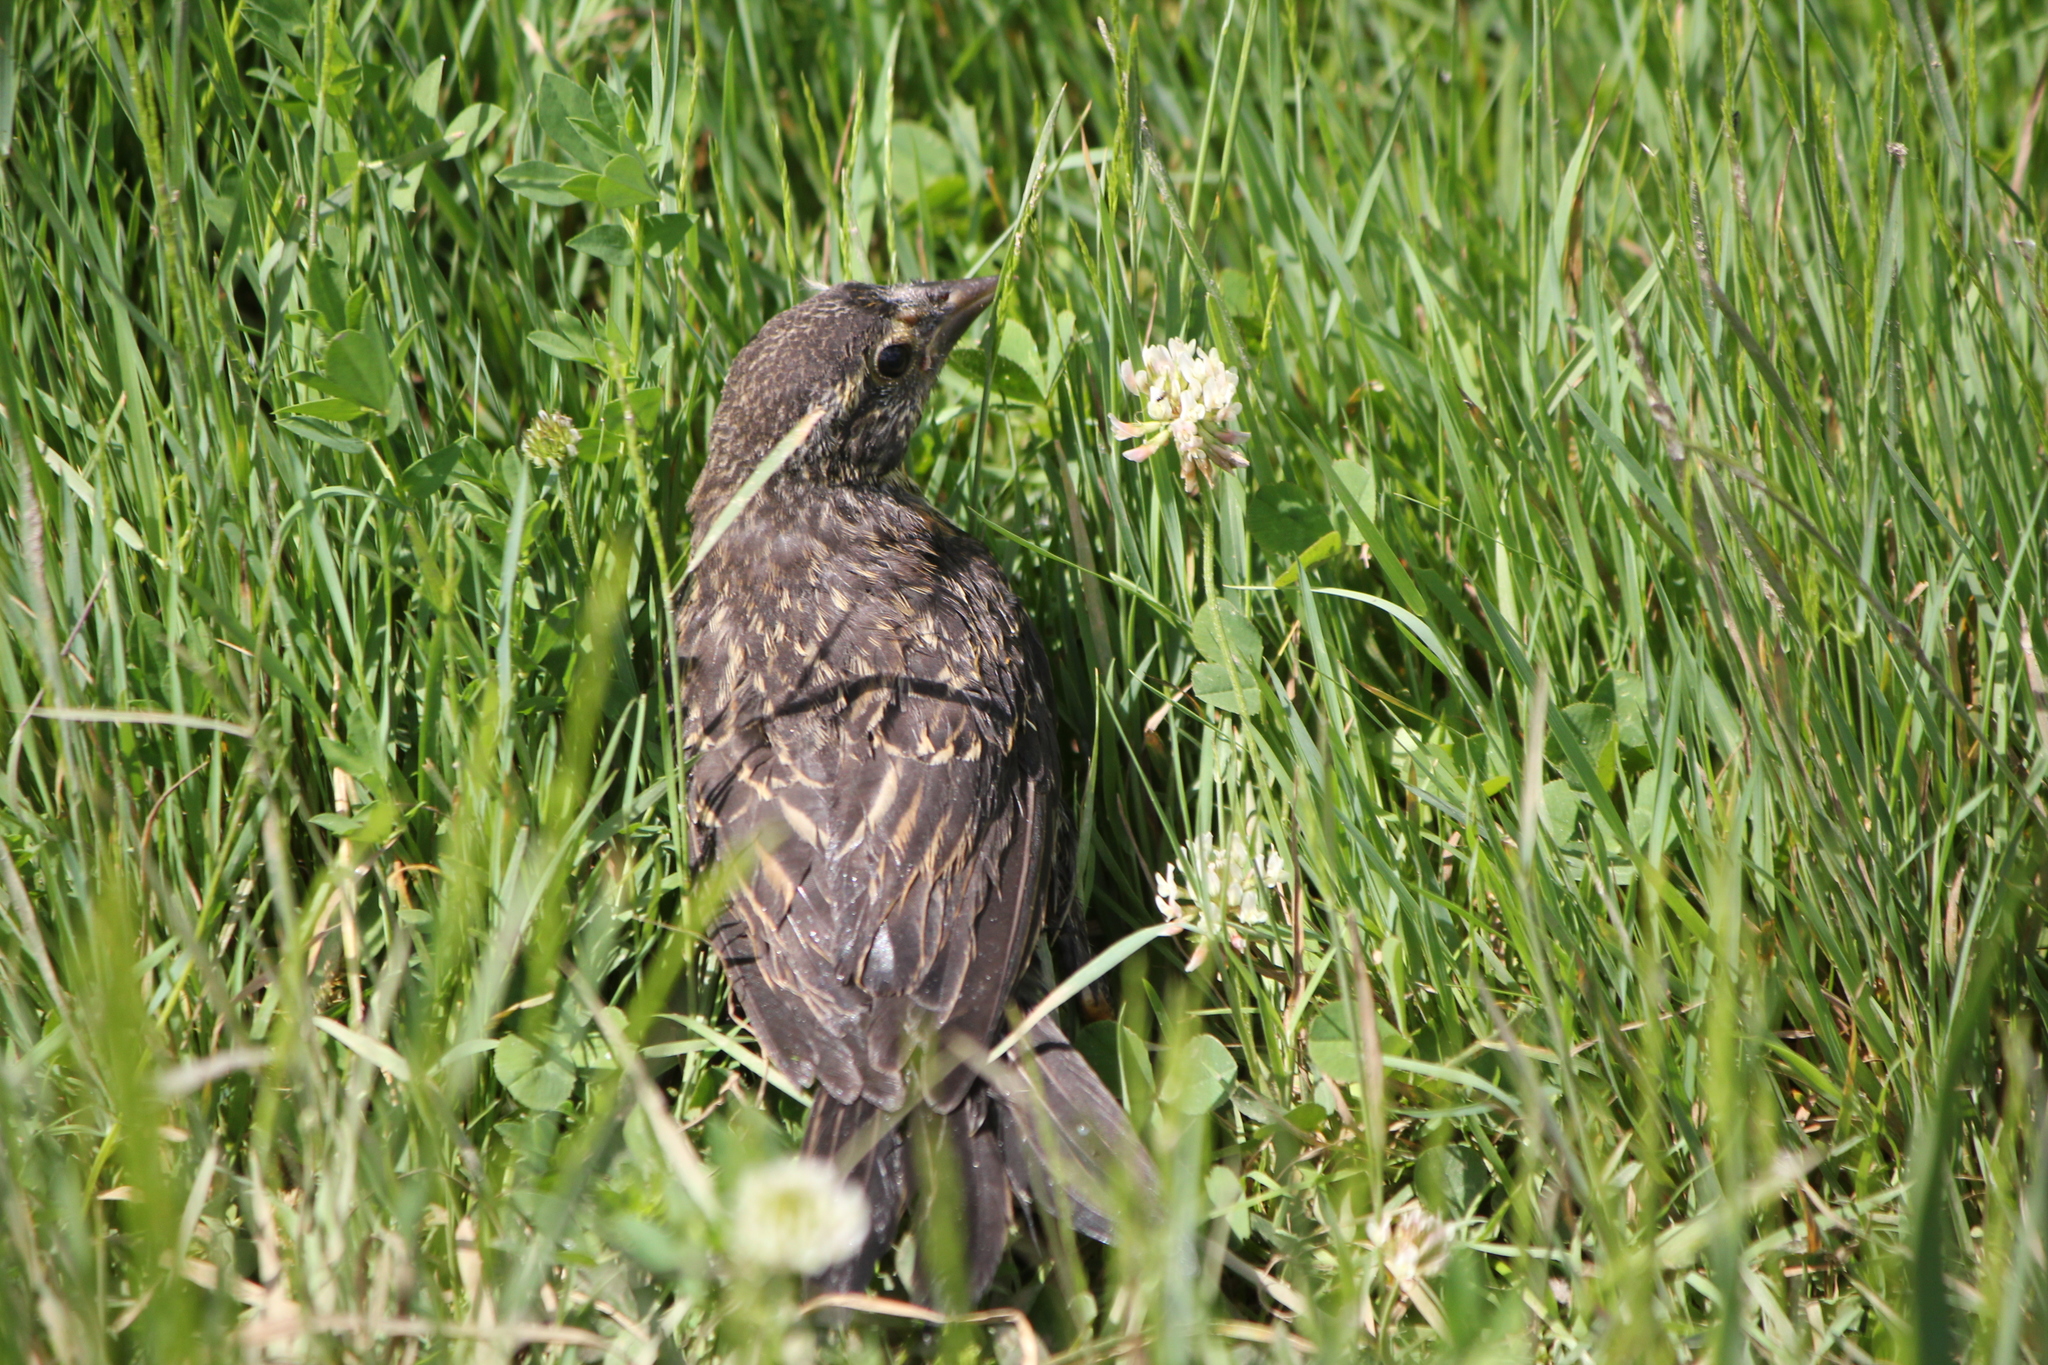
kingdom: Animalia
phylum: Chordata
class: Aves
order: Passeriformes
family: Icteridae
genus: Agelaius
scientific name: Agelaius phoeniceus
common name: Red-winged blackbird
